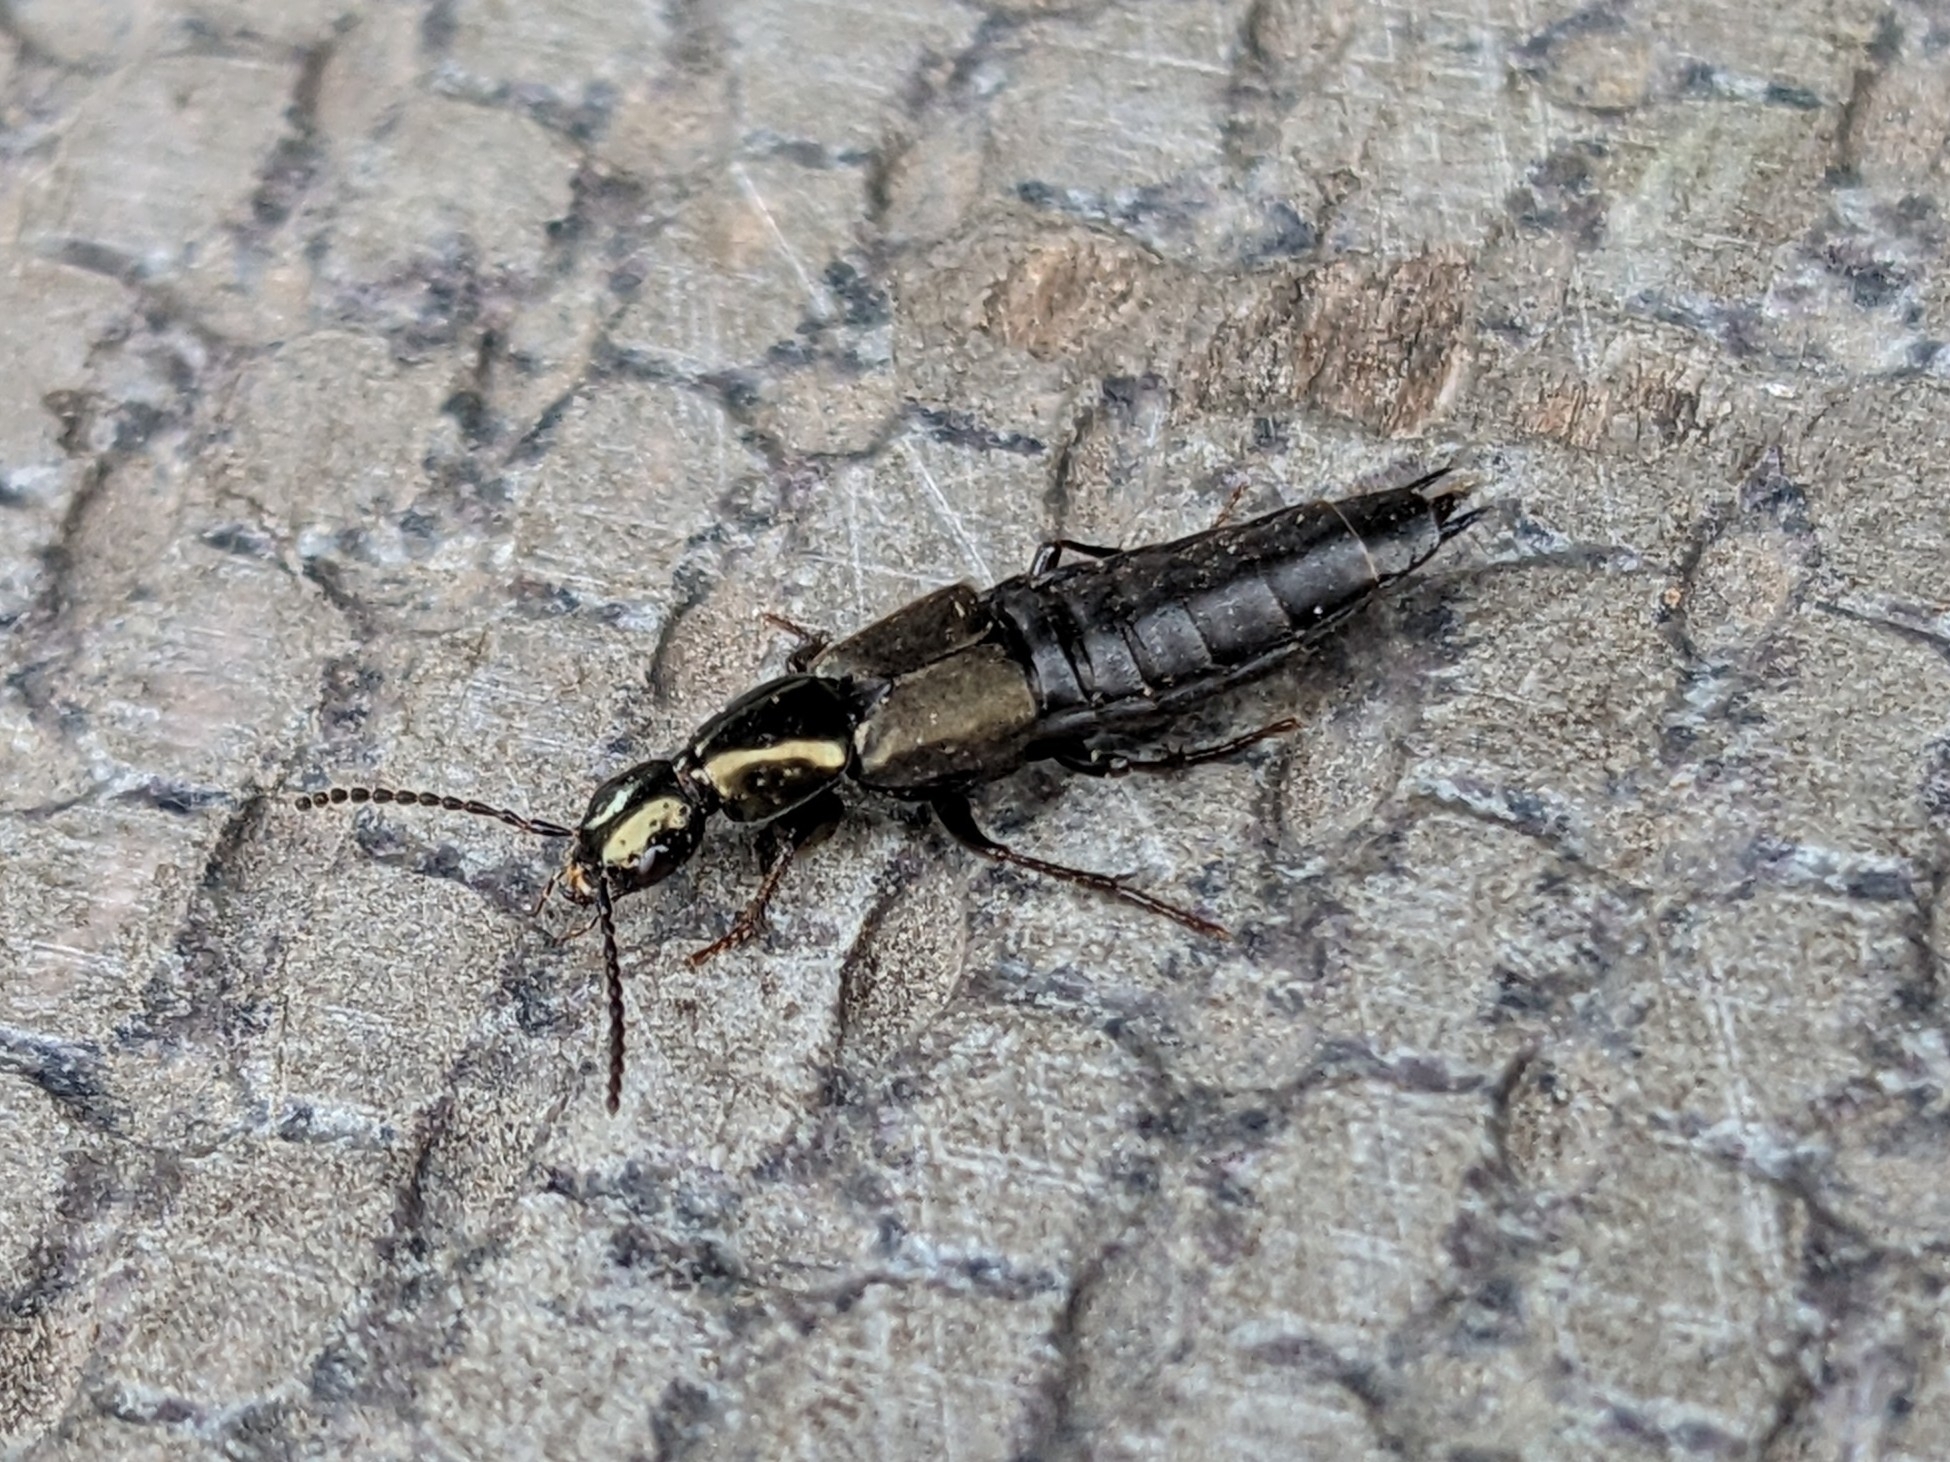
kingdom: Animalia
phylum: Arthropoda
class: Insecta
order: Coleoptera
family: Staphylinidae
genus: Philonthus
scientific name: Philonthus decorus
